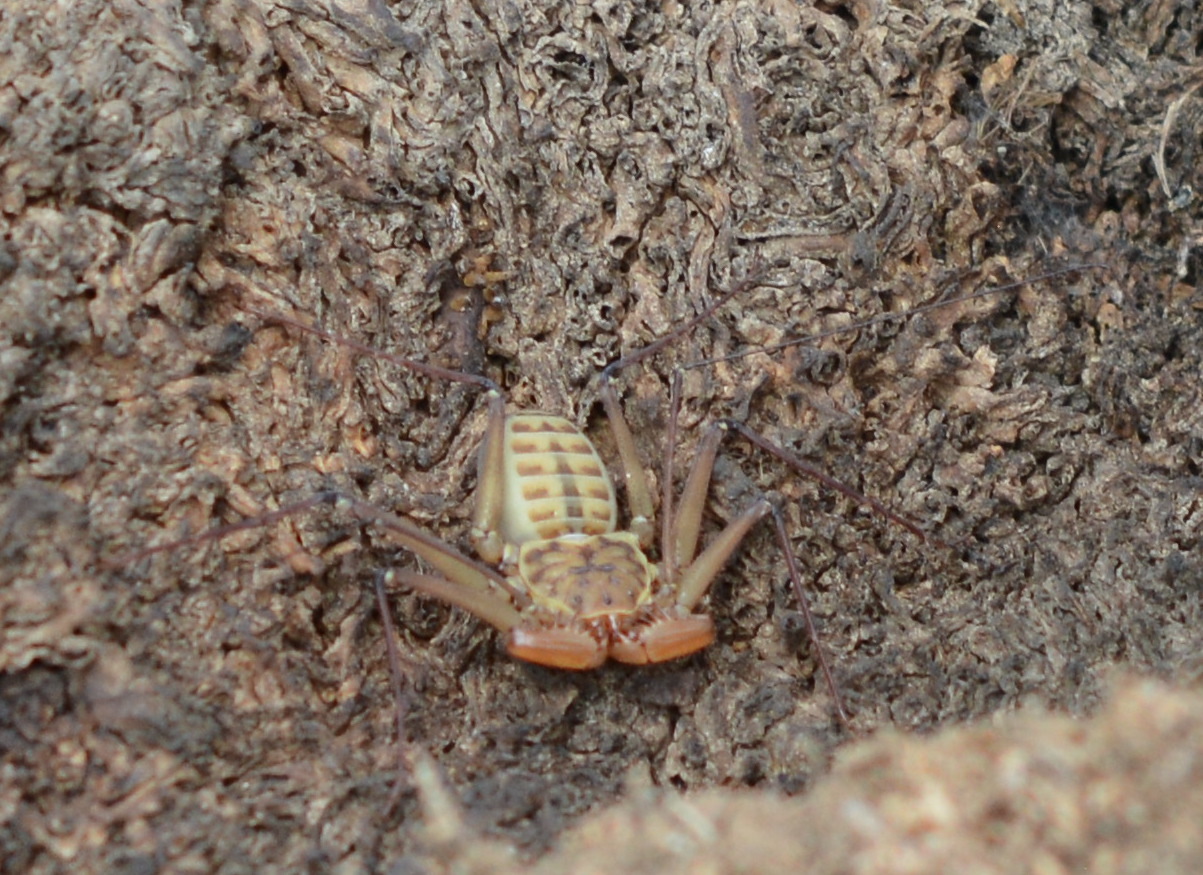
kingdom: Animalia
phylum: Arthropoda
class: Arachnida
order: Amblypygi
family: Phrynidae
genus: Phrynus
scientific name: Phrynus asperatipes
